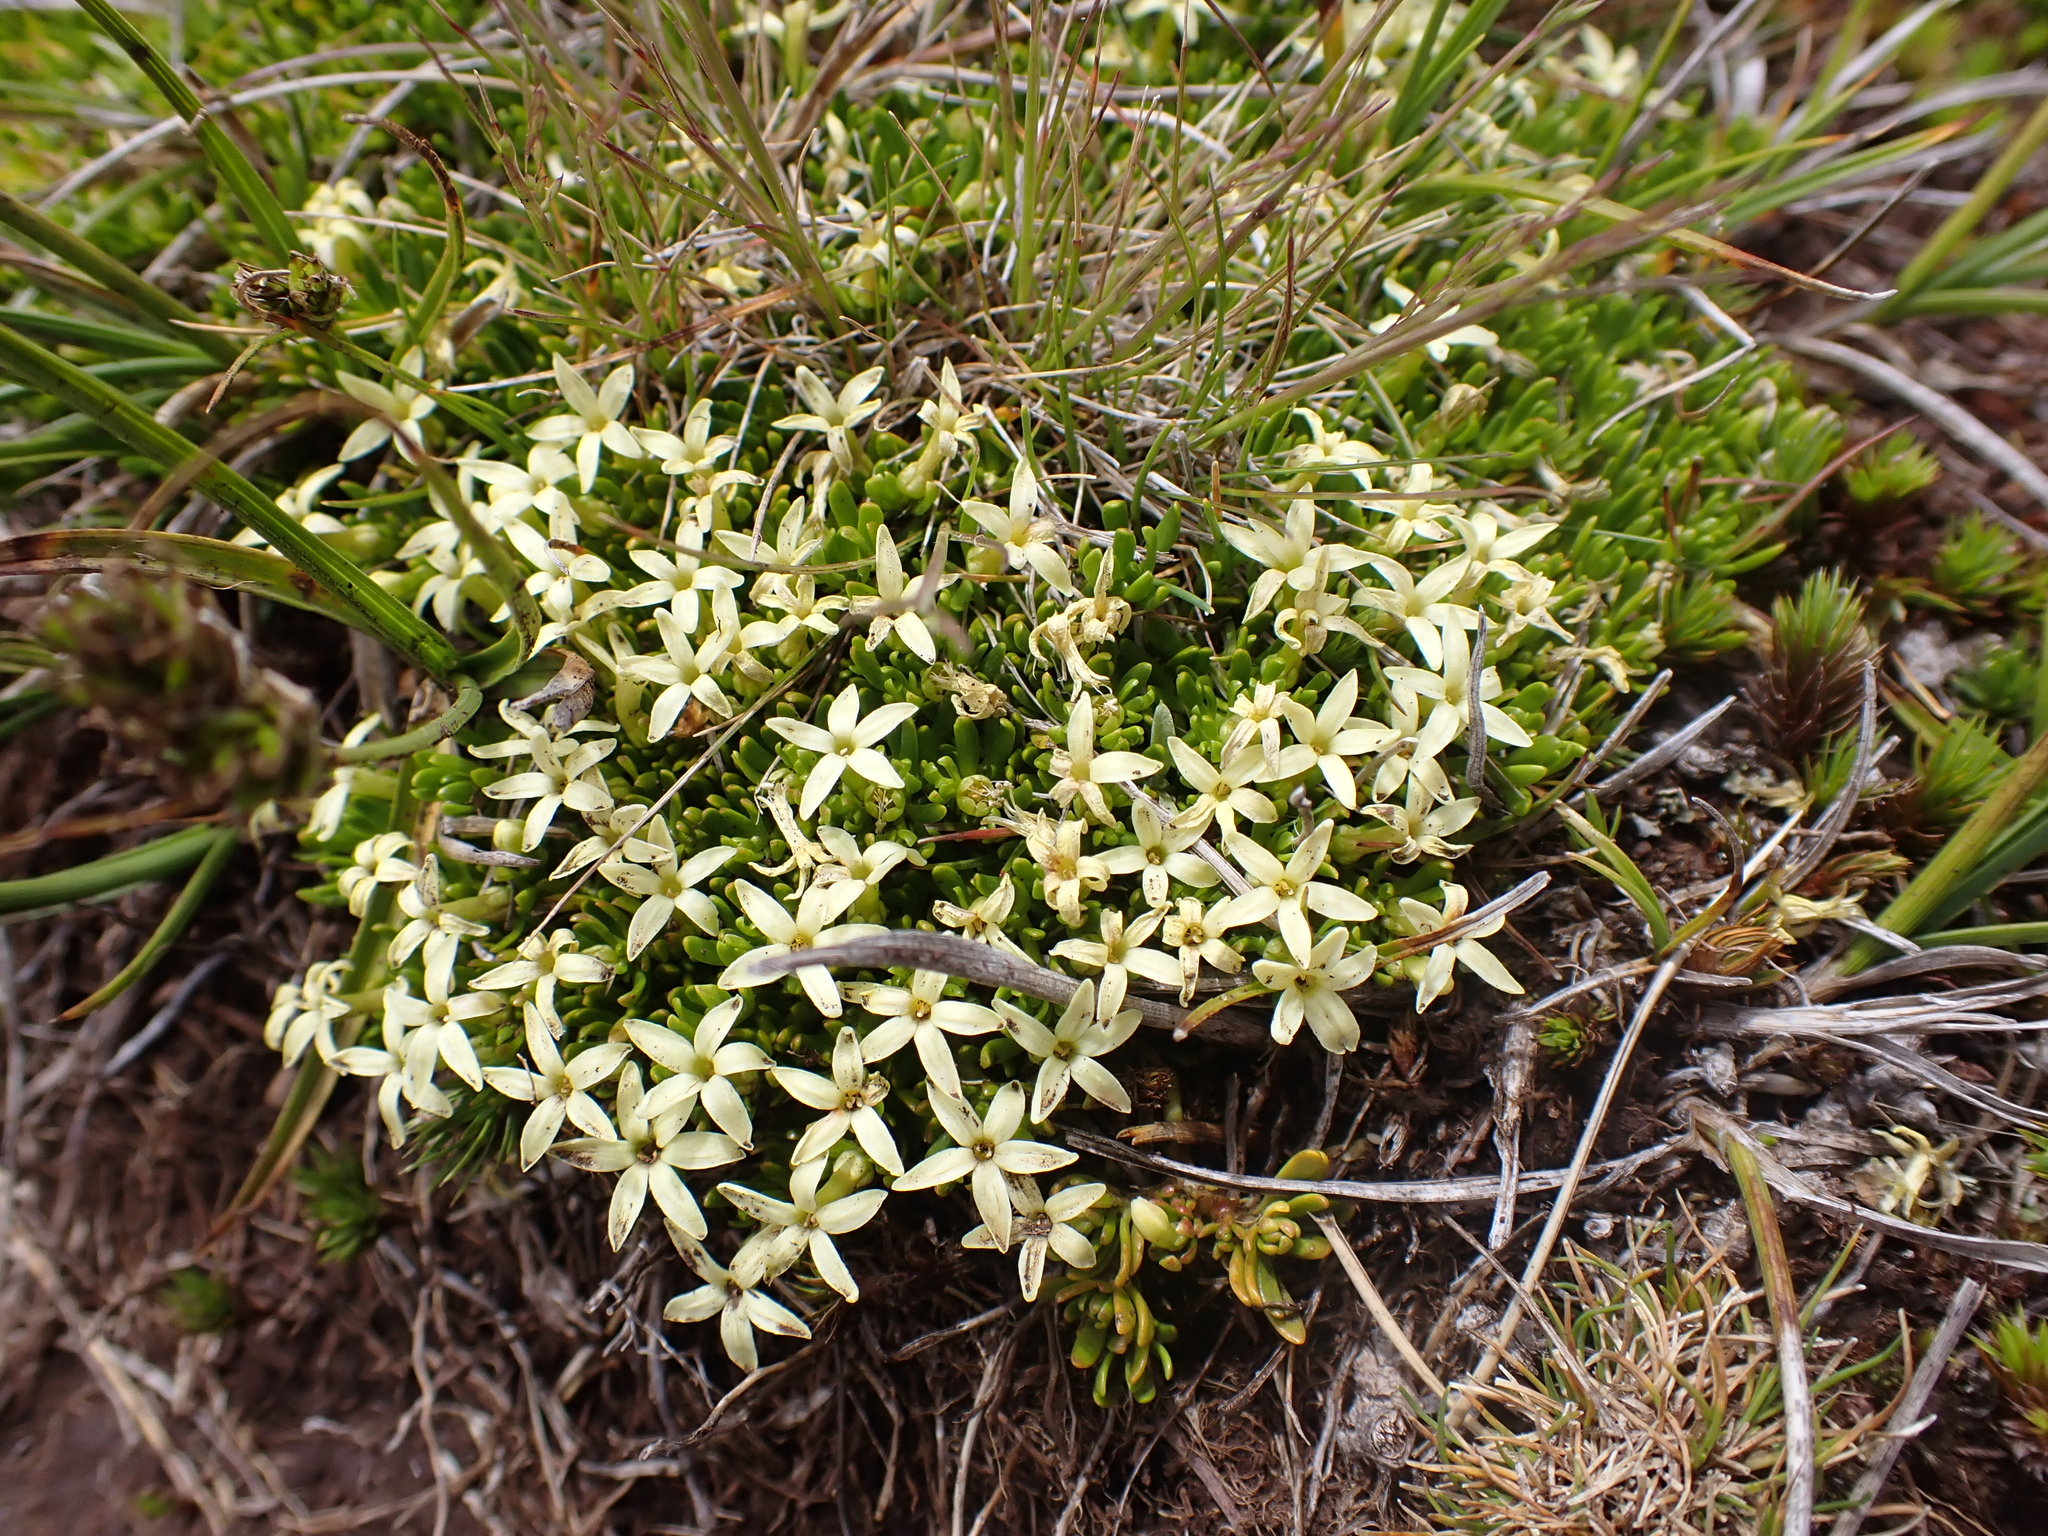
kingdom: Plantae
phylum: Tracheophyta
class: Magnoliopsida
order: Celastrales
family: Celastraceae
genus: Stackhousia
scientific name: Stackhousia pulvinaris
